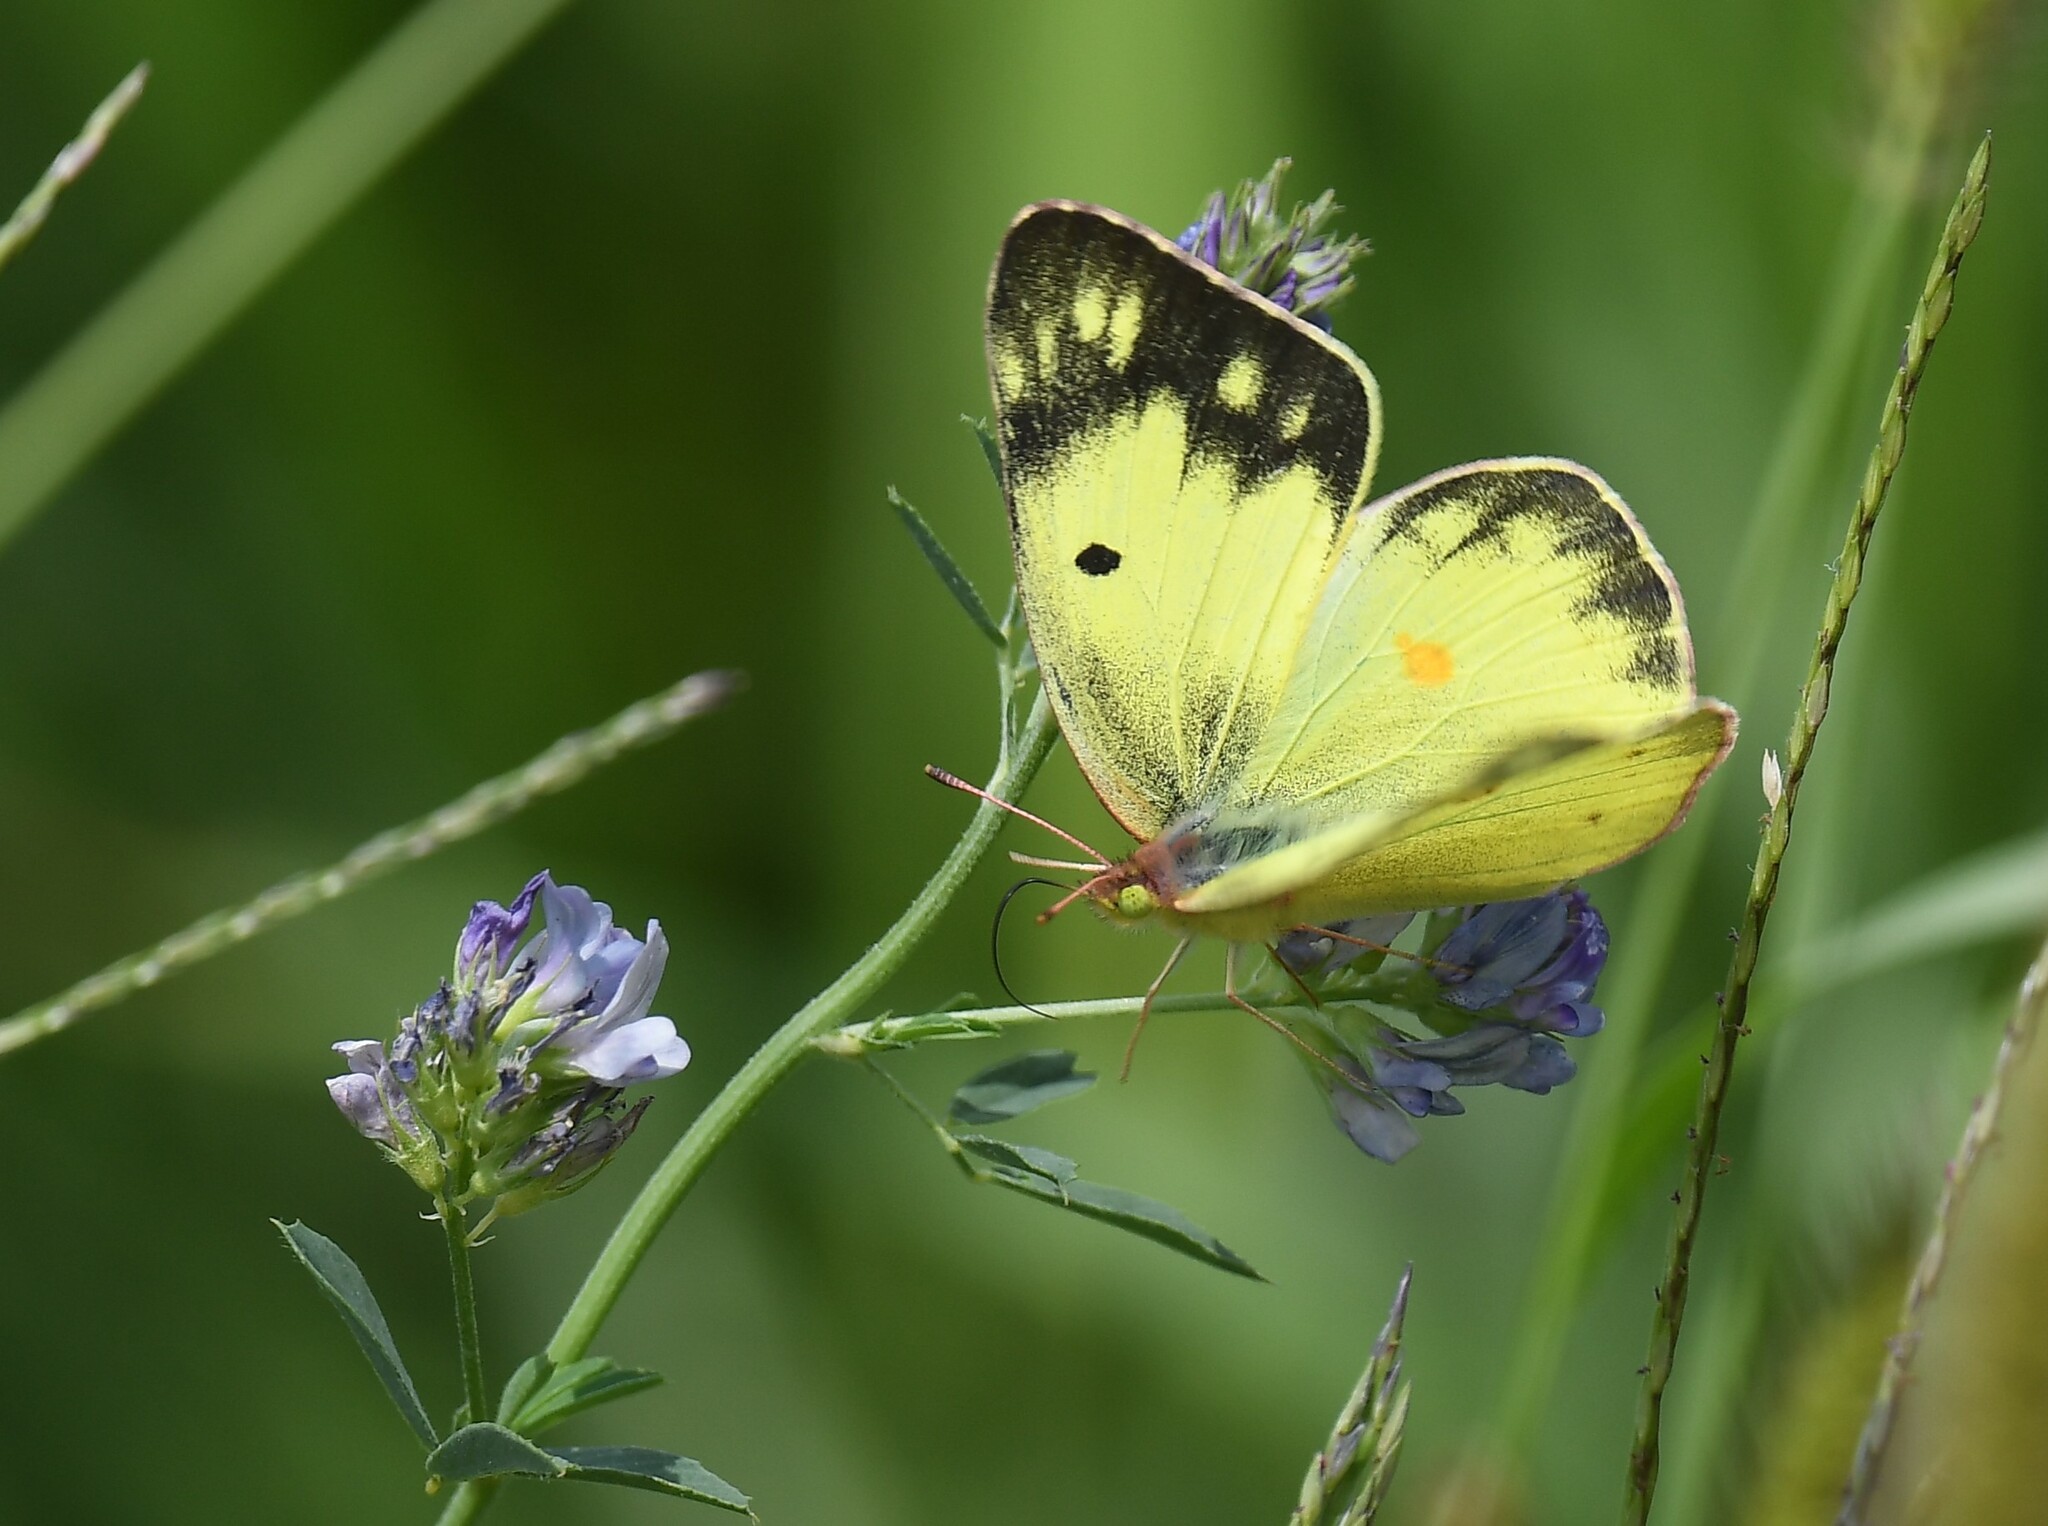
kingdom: Animalia
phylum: Arthropoda
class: Insecta
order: Lepidoptera
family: Pieridae
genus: Colias
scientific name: Colias philodice
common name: Clouded sulphur
